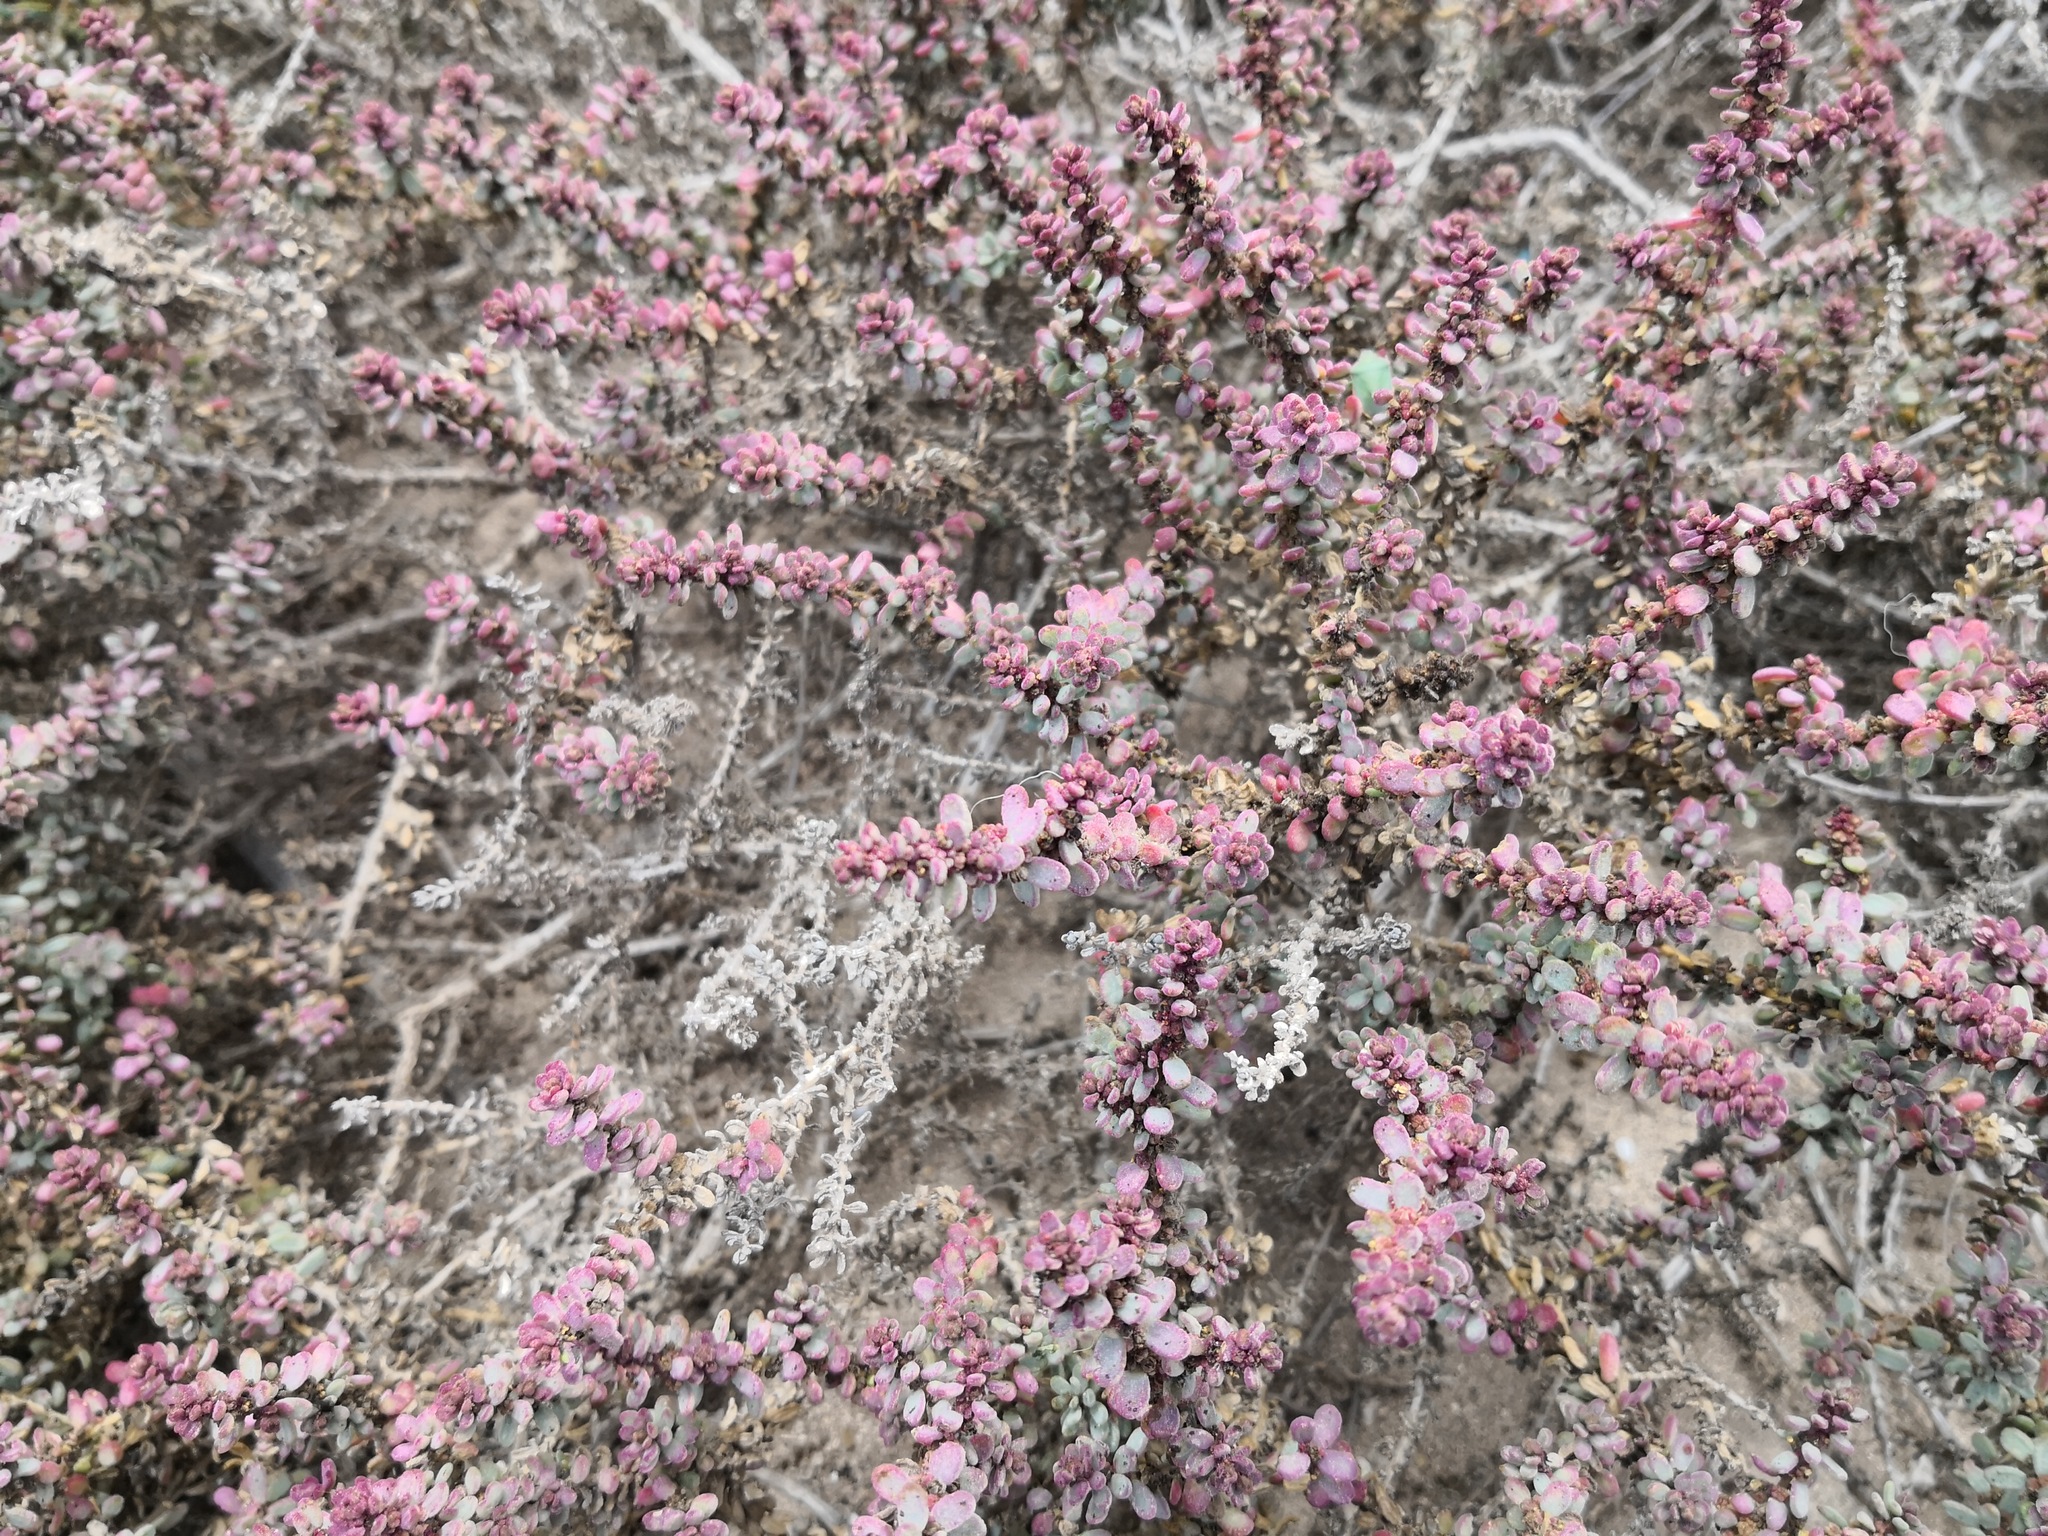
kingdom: Plantae
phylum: Tracheophyta
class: Magnoliopsida
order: Caryophyllales
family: Amaranthaceae
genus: Suaeda
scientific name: Suaeda vermiculata
